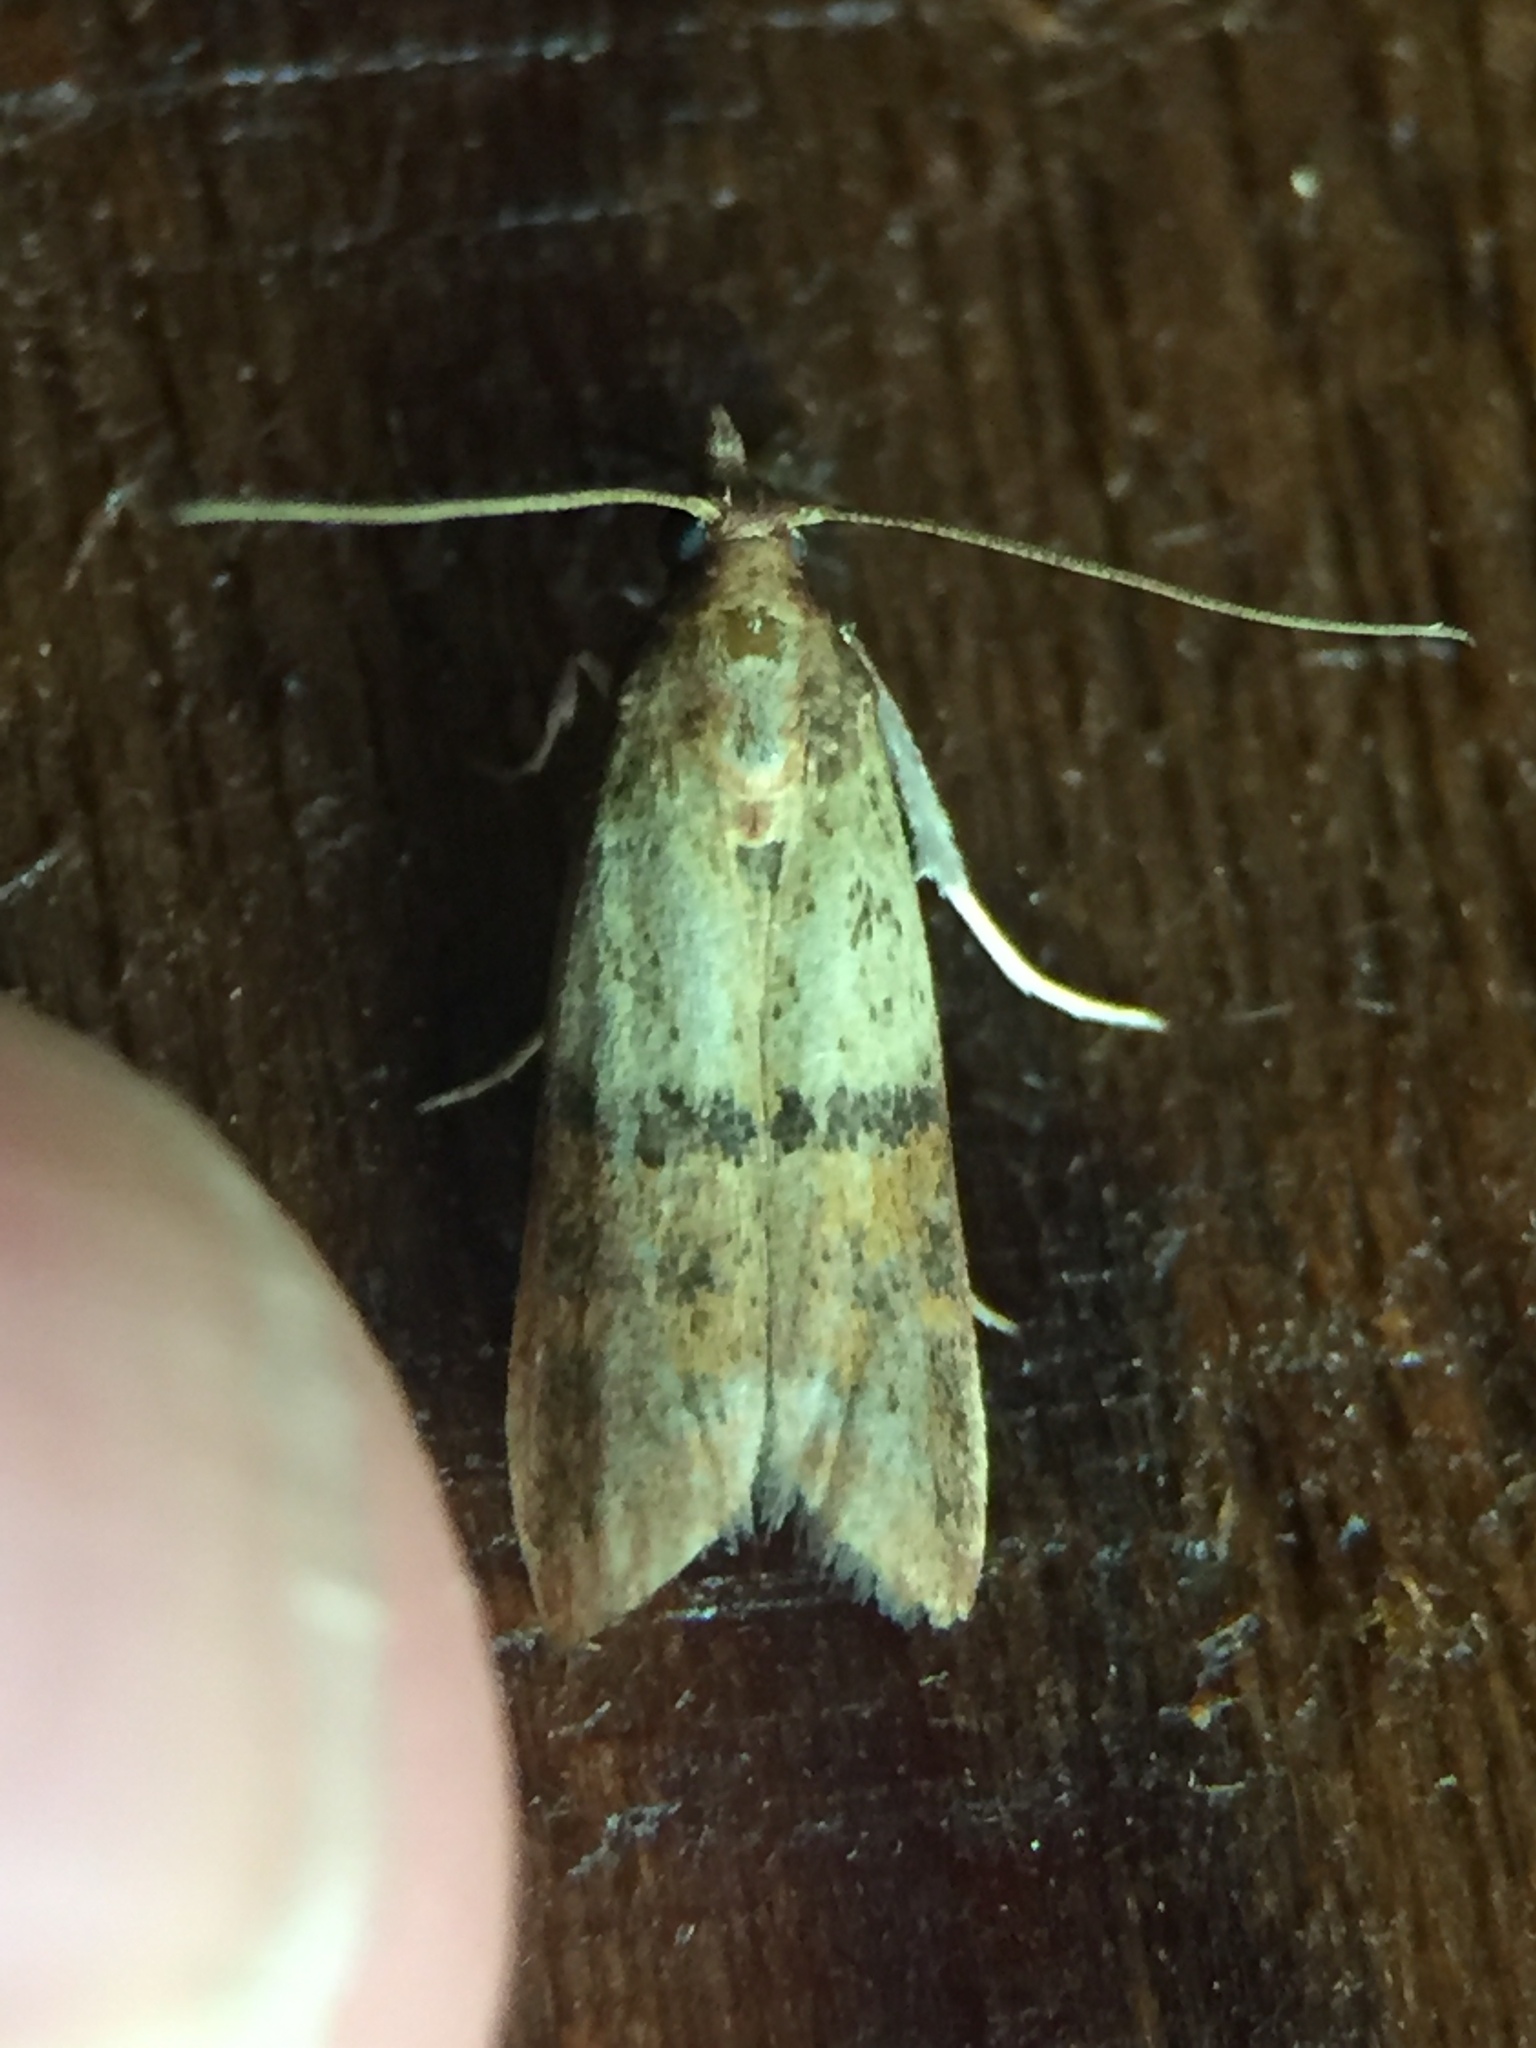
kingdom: Animalia
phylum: Arthropoda
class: Insecta
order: Lepidoptera
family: Pyralidae
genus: Plodia
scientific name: Plodia interpunctella
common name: Indian meal moth
